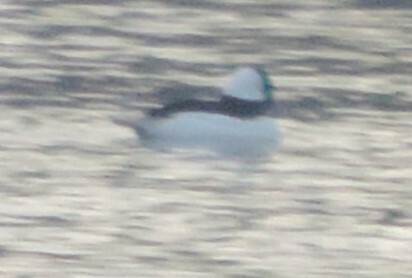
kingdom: Animalia
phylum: Chordata
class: Aves
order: Anseriformes
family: Anatidae
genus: Bucephala
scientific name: Bucephala albeola
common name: Bufflehead
